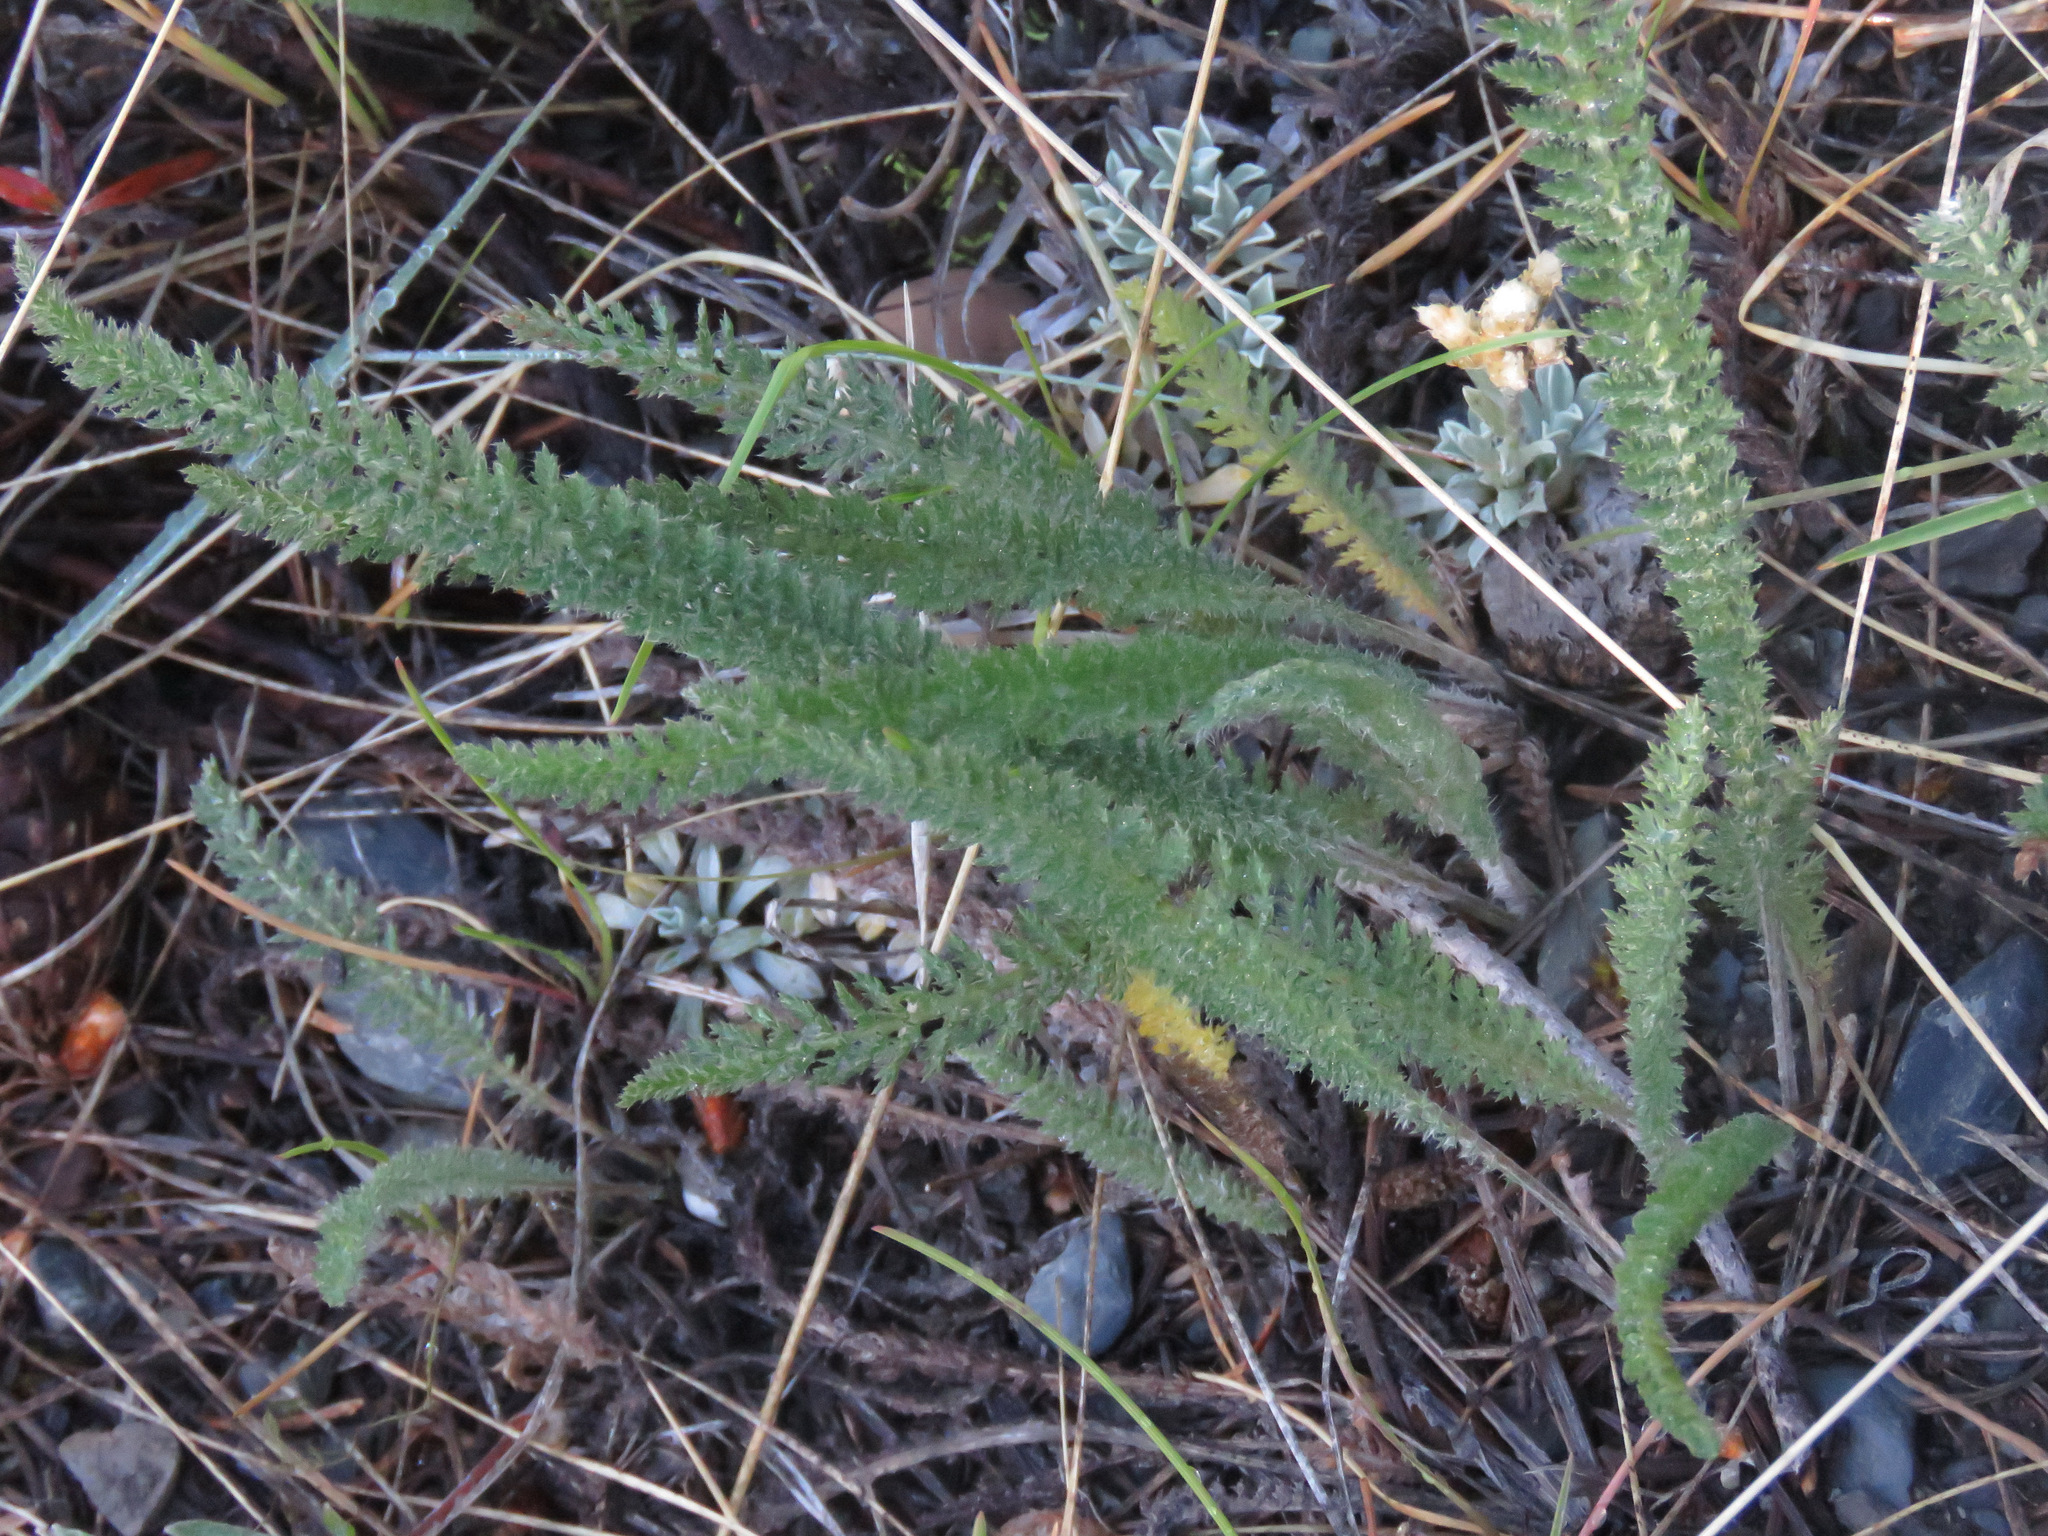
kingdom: Plantae
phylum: Tracheophyta
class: Magnoliopsida
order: Asterales
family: Asteraceae
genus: Achillea
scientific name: Achillea millefolium
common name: Yarrow
